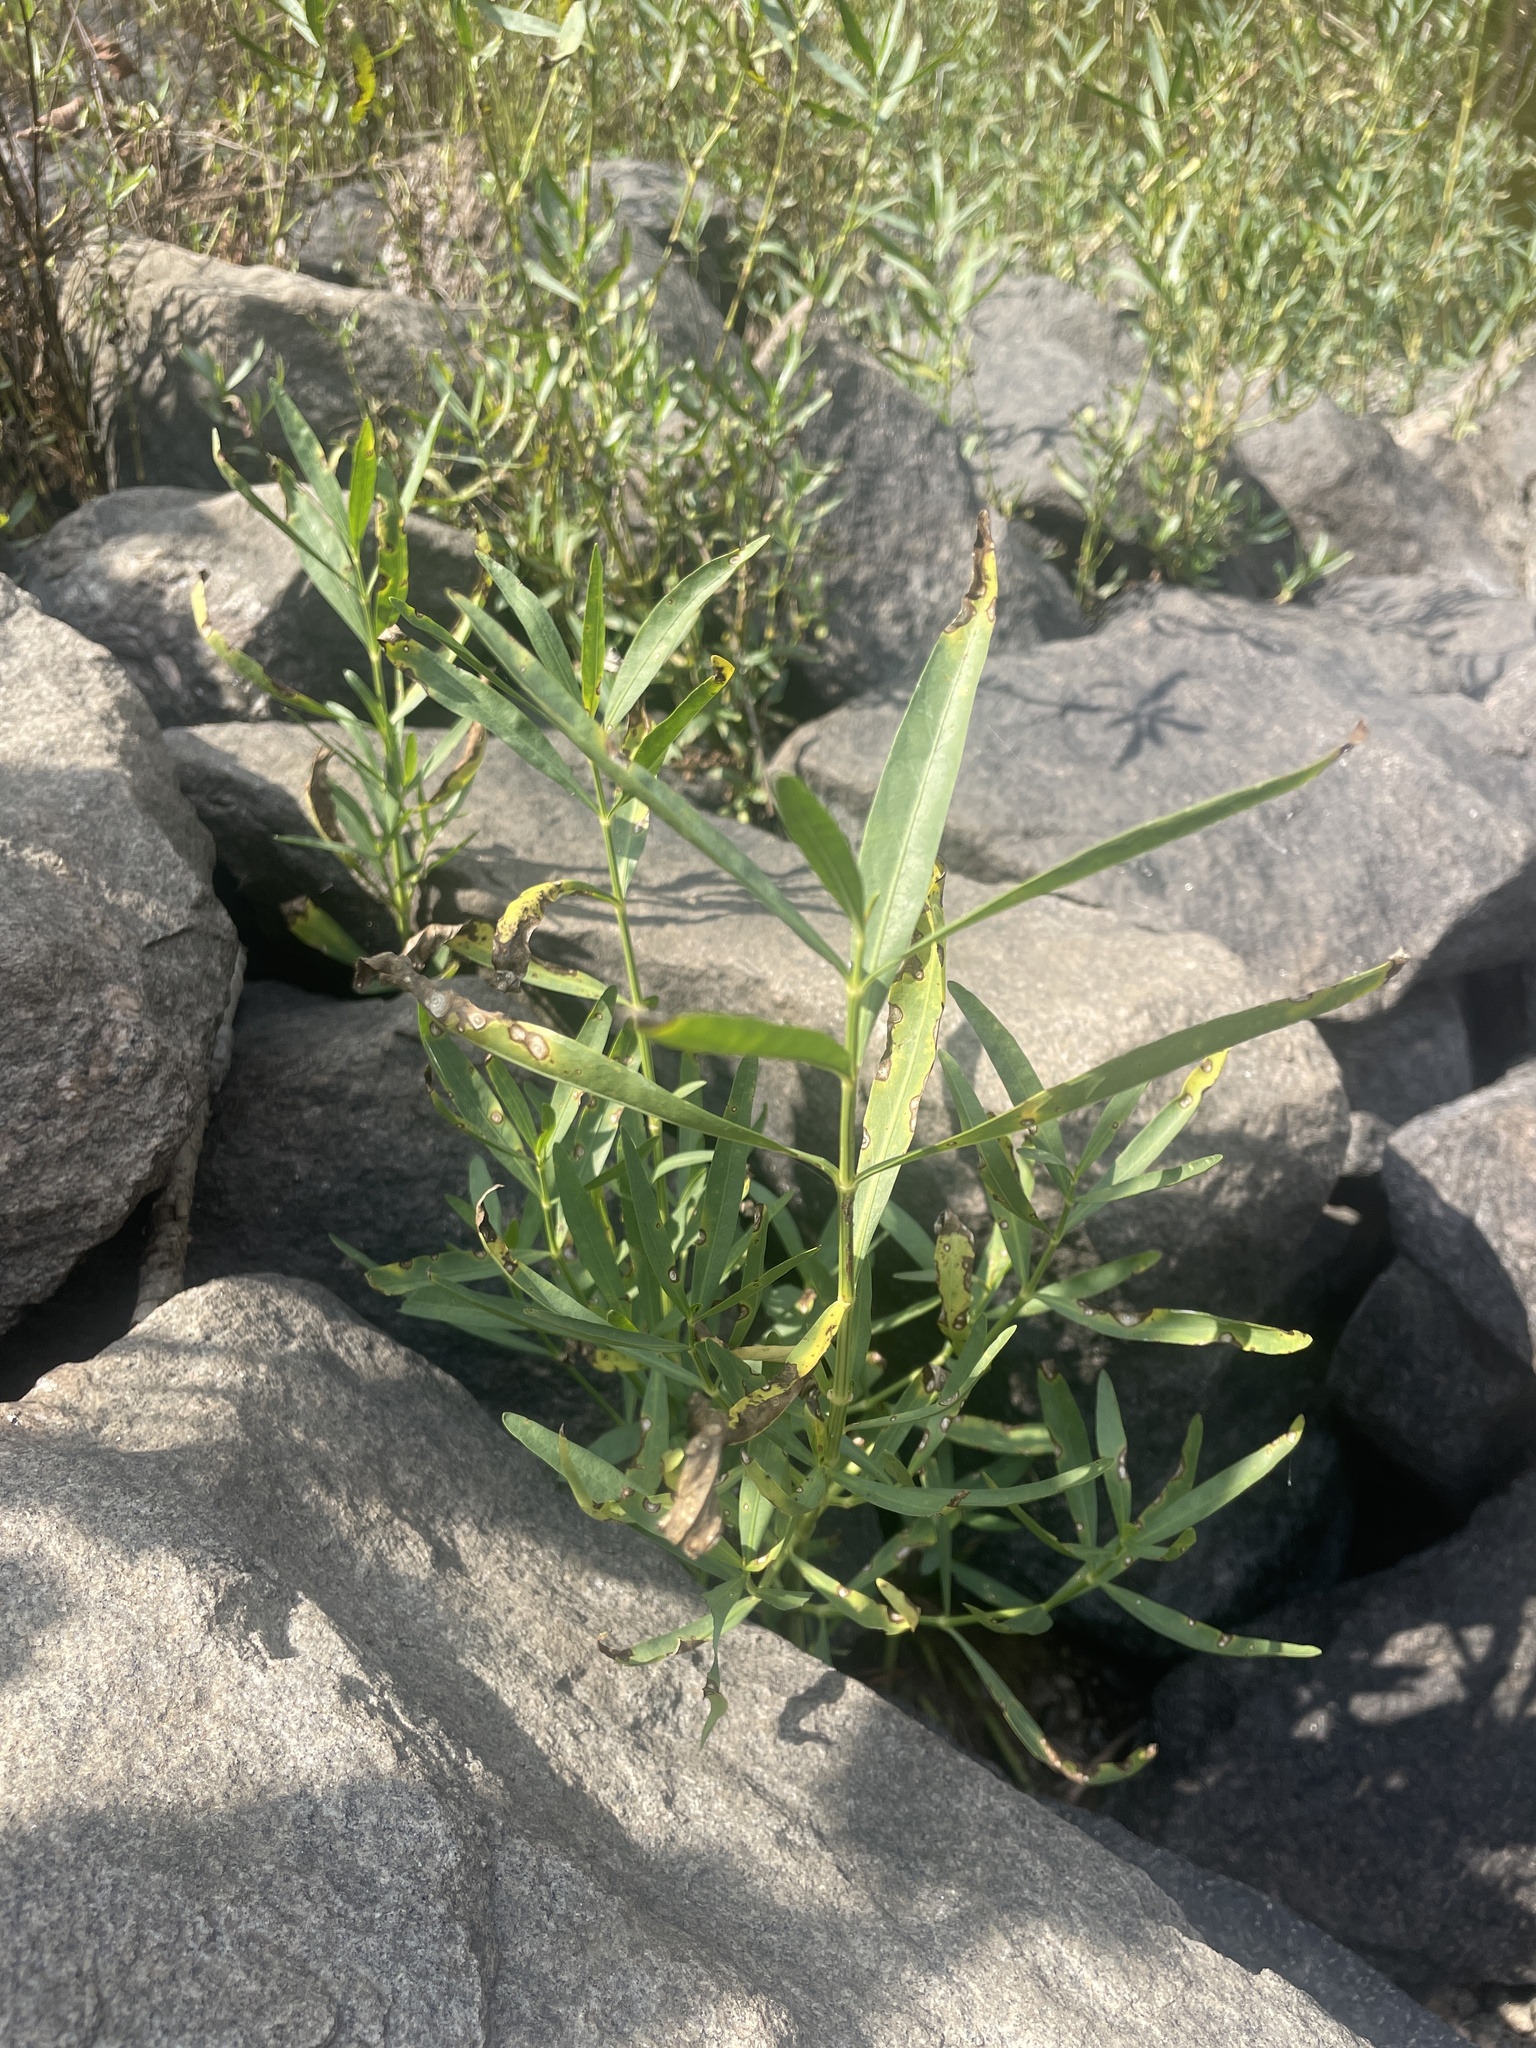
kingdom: Plantae
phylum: Tracheophyta
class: Magnoliopsida
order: Lamiales
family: Acanthaceae
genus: Dianthera
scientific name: Dianthera americana
